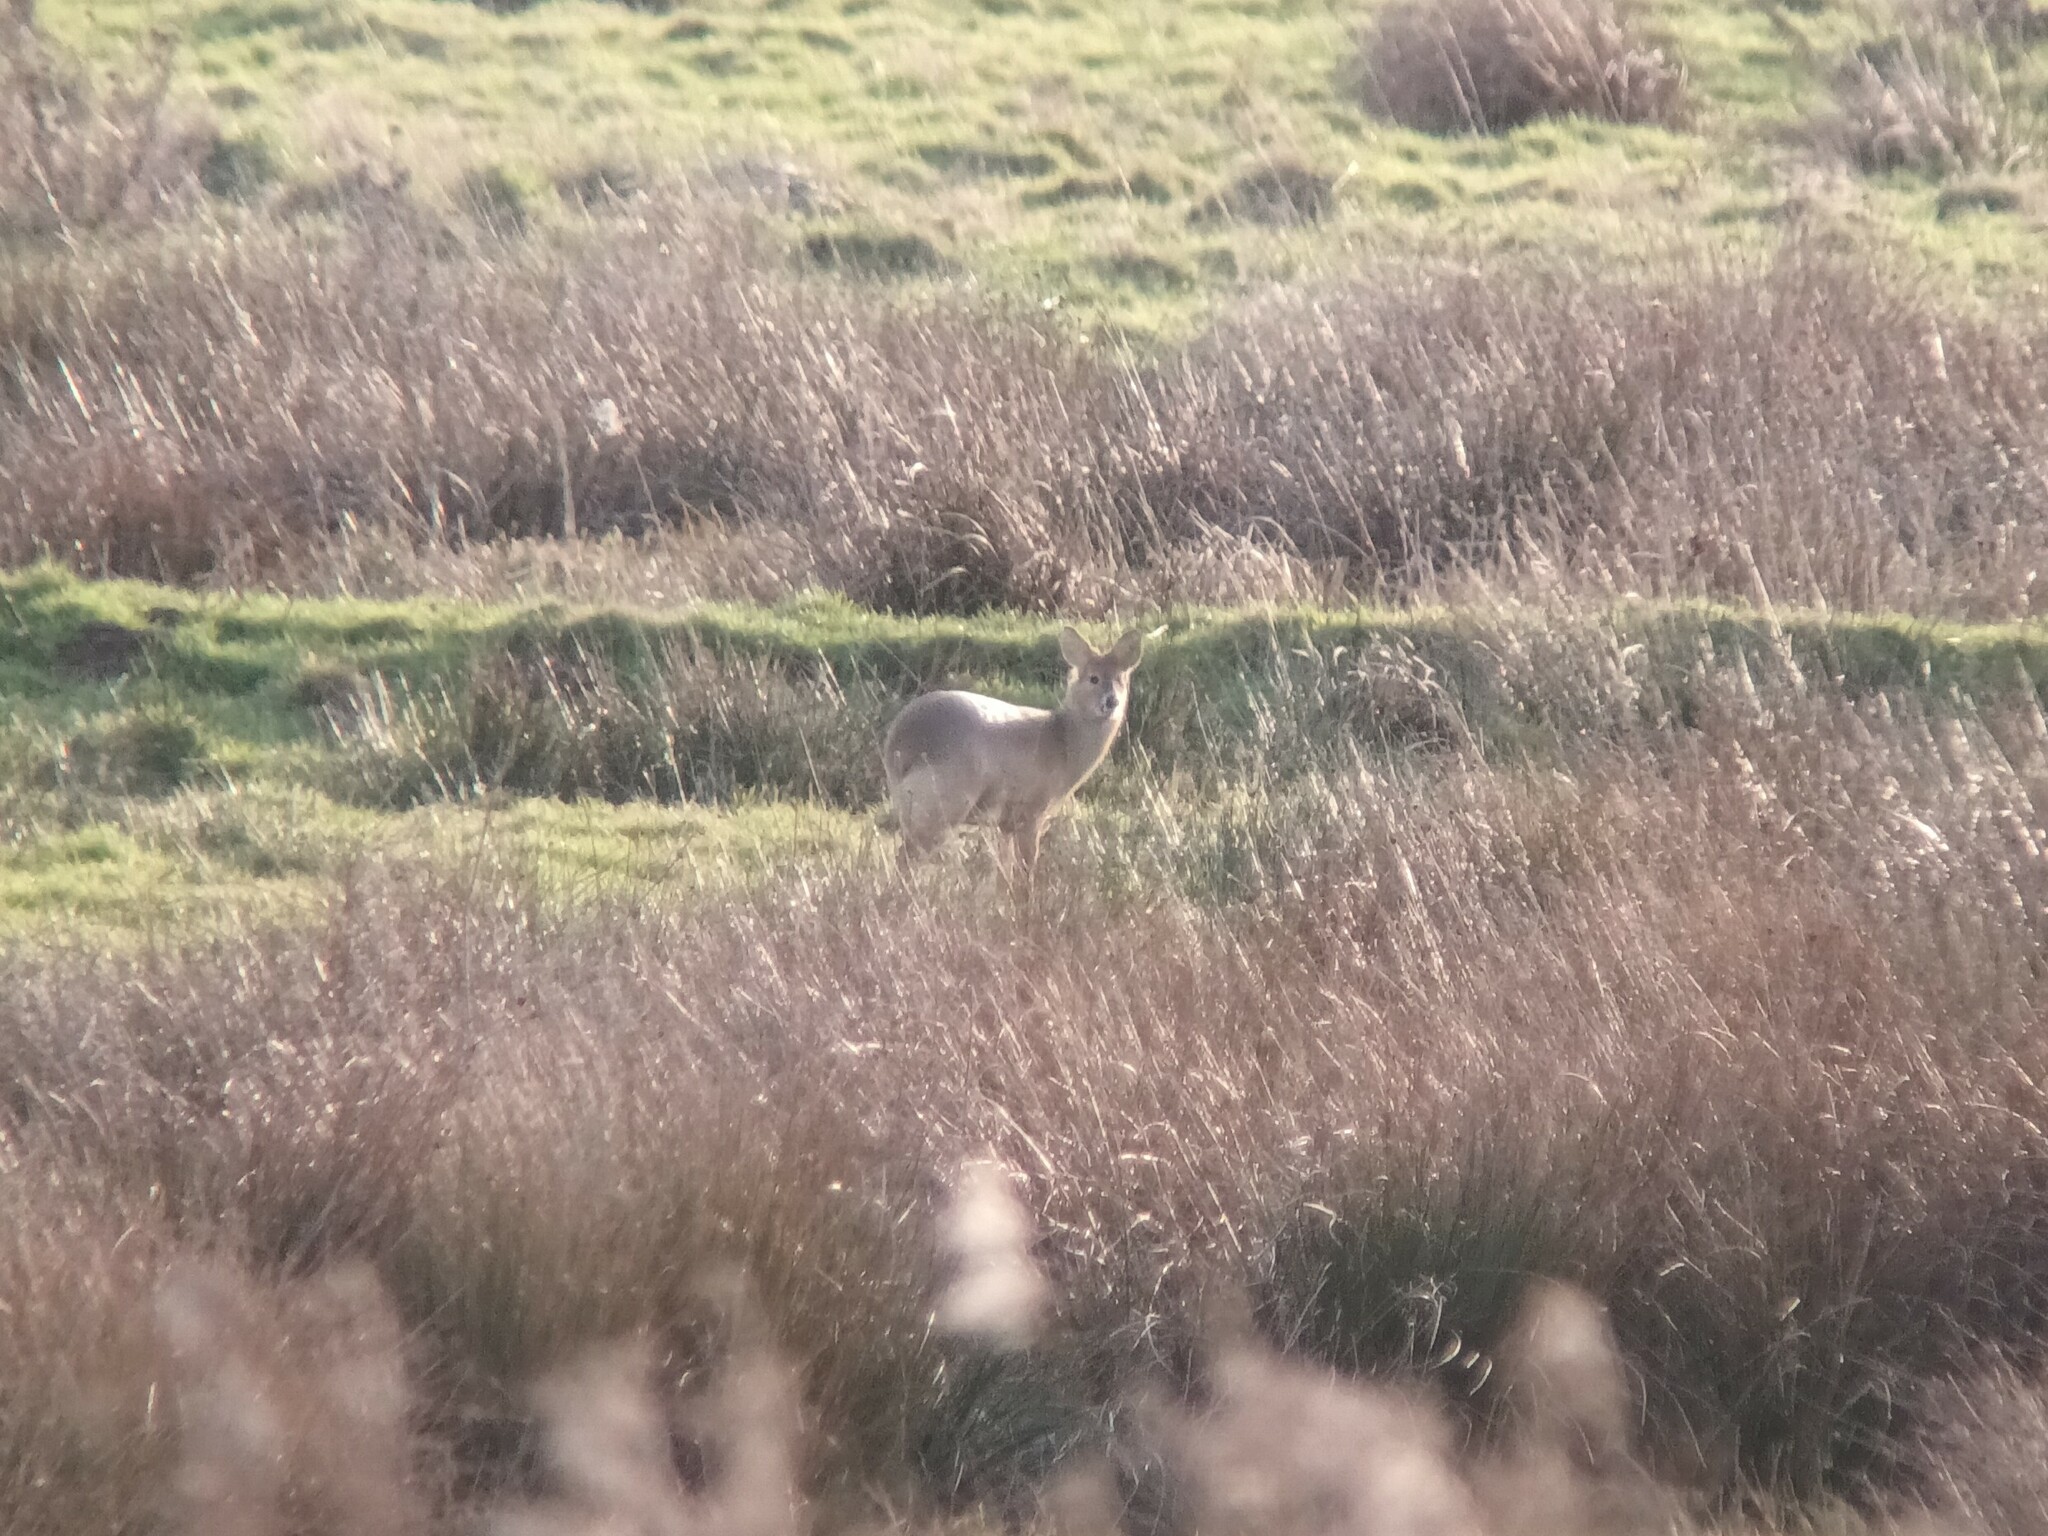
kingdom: Animalia
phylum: Chordata
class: Mammalia
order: Artiodactyla
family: Cervidae
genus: Hydropotes
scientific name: Hydropotes inermis
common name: Chinese water deer
